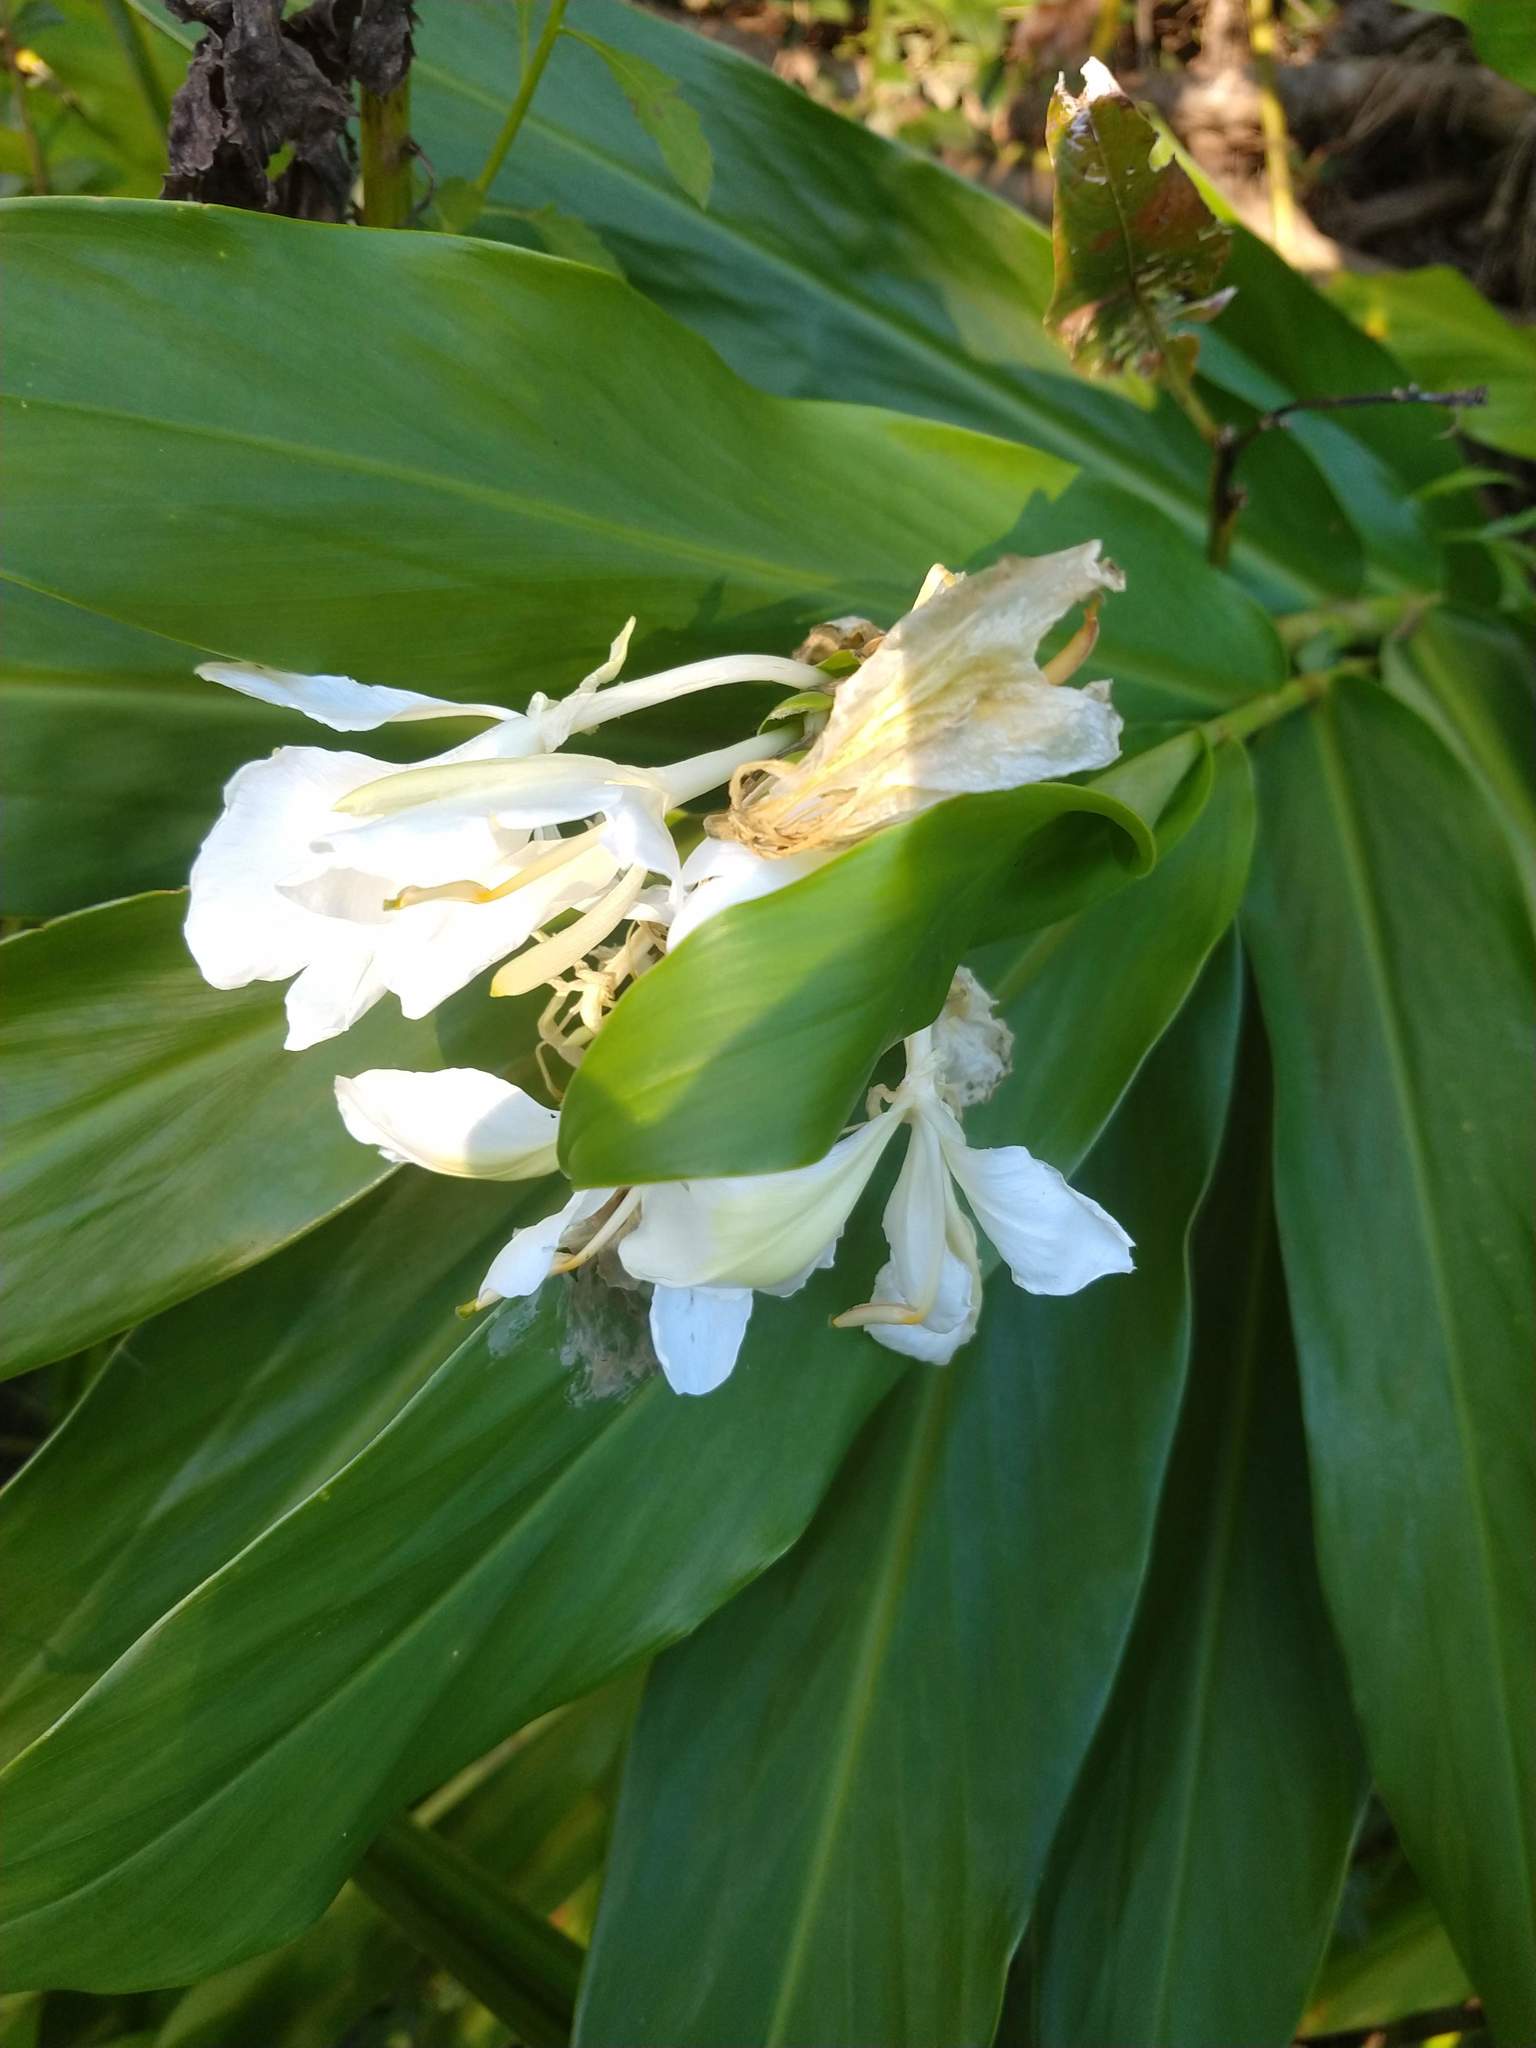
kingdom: Plantae
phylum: Tracheophyta
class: Liliopsida
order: Zingiberales
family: Zingiberaceae
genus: Hedychium
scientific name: Hedychium coronarium
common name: White garland-lily
